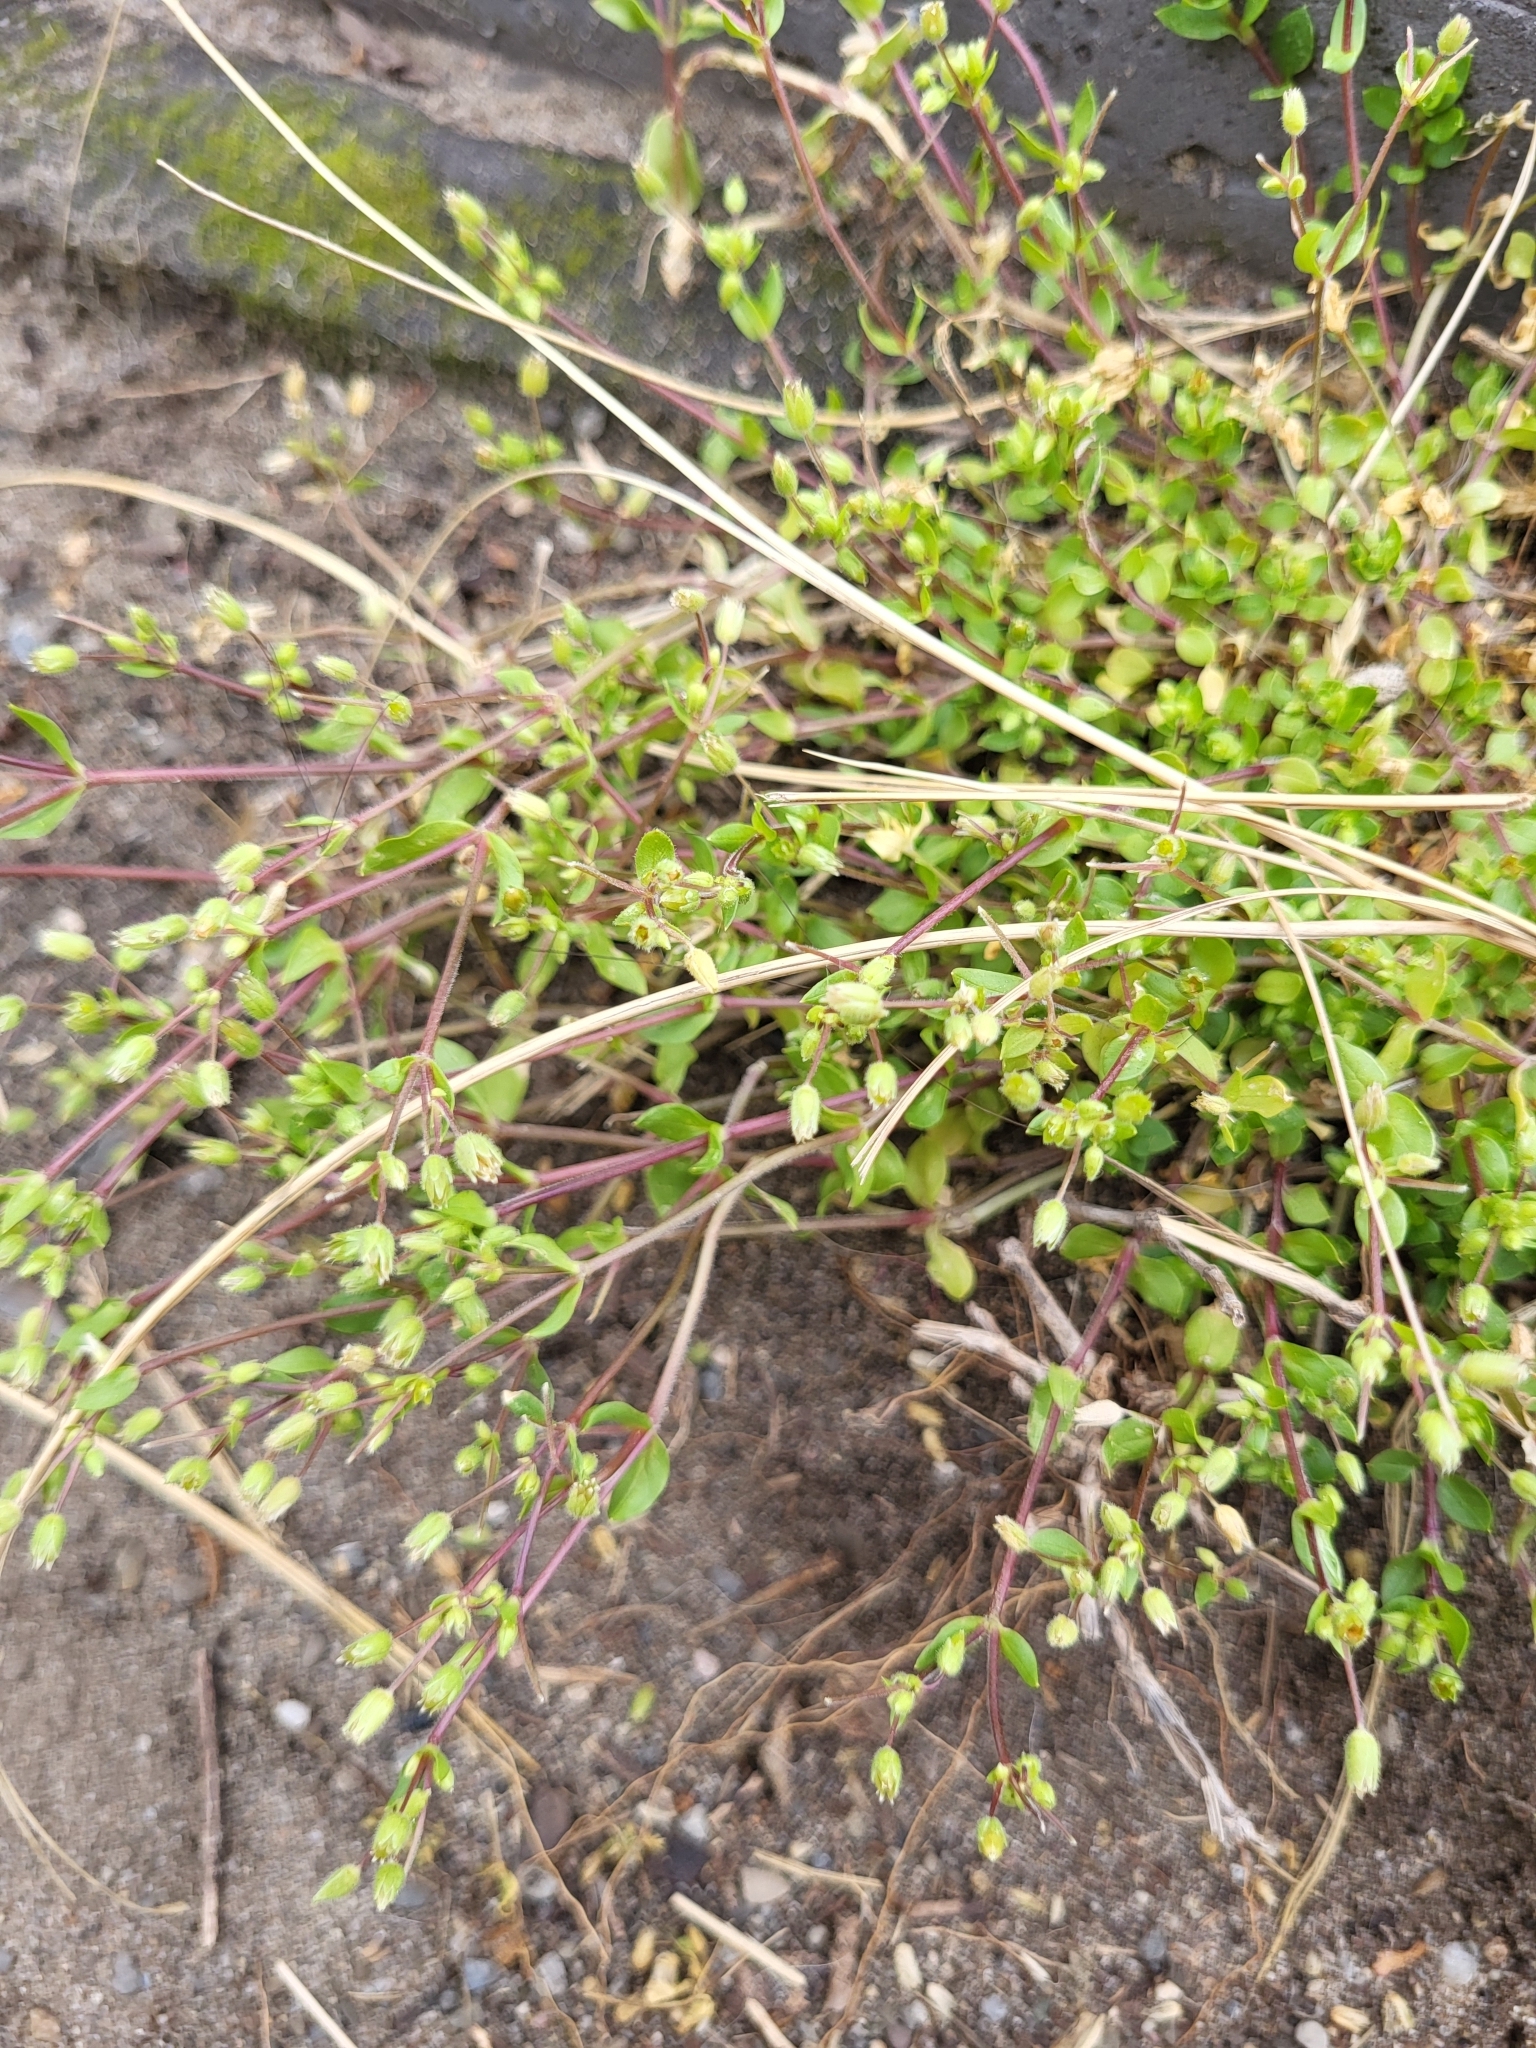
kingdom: Plantae
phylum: Tracheophyta
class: Magnoliopsida
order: Caryophyllales
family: Caryophyllaceae
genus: Stellaria
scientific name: Stellaria apetala
